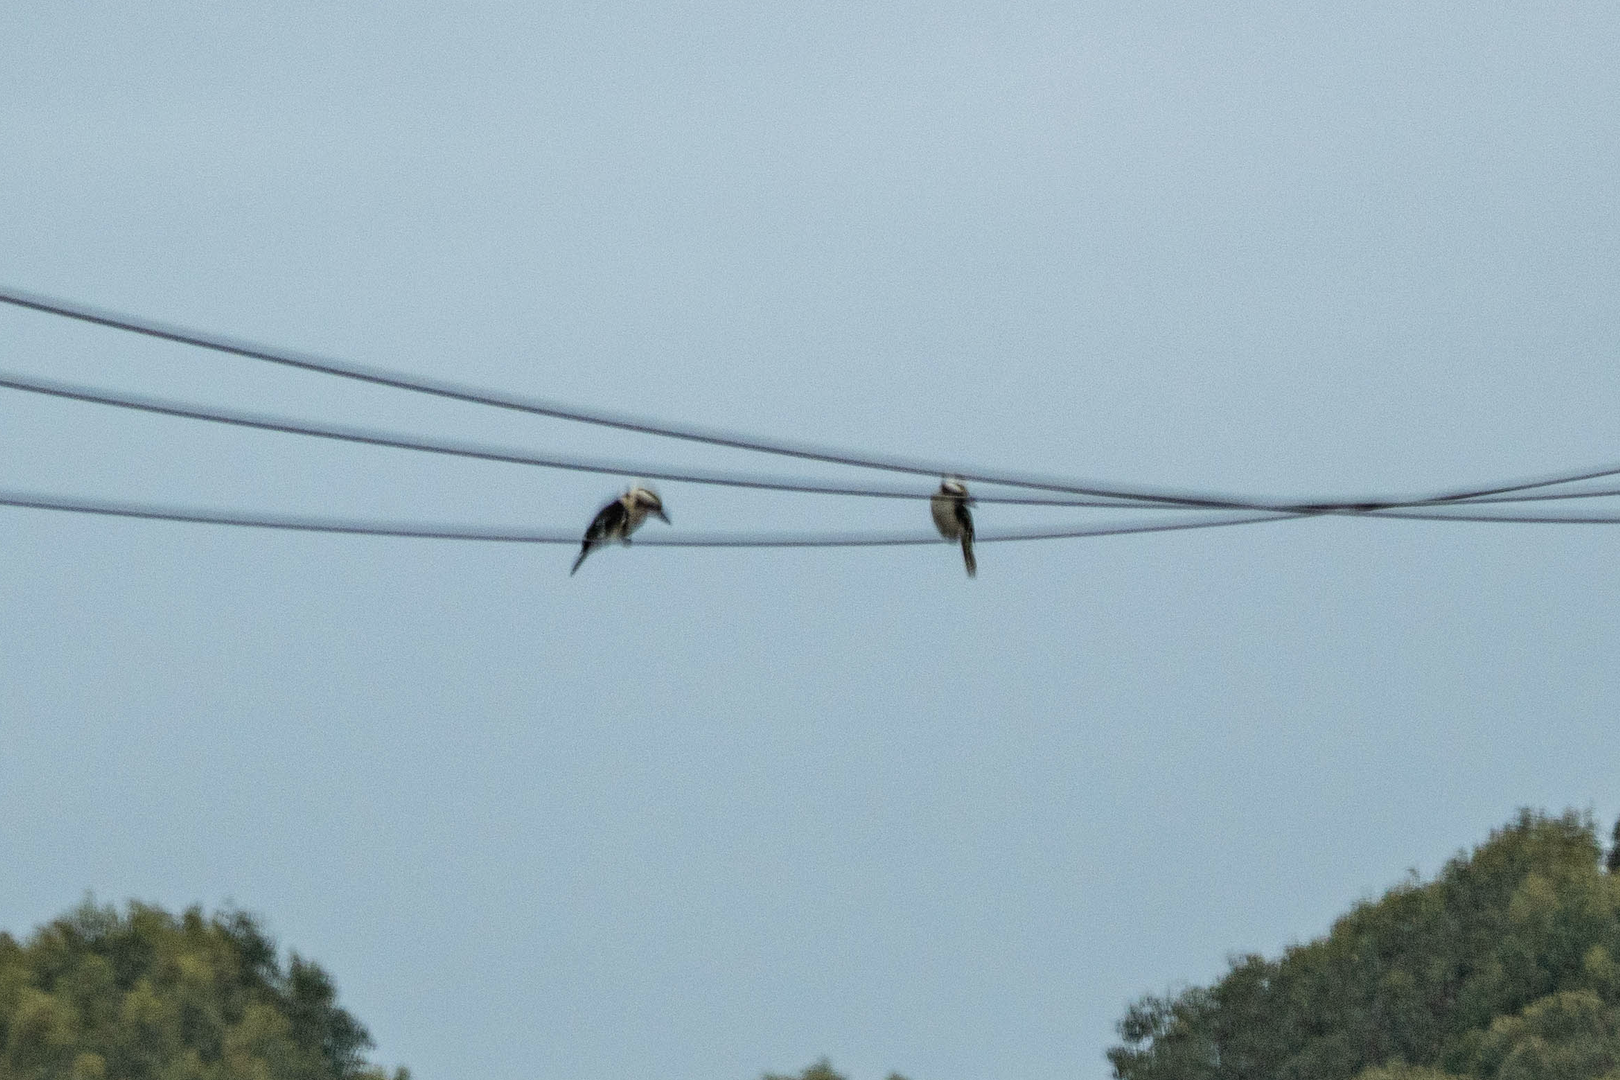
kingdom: Animalia
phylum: Chordata
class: Aves
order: Coraciiformes
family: Alcedinidae
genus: Dacelo
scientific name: Dacelo novaeguineae
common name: Laughing kookaburra
